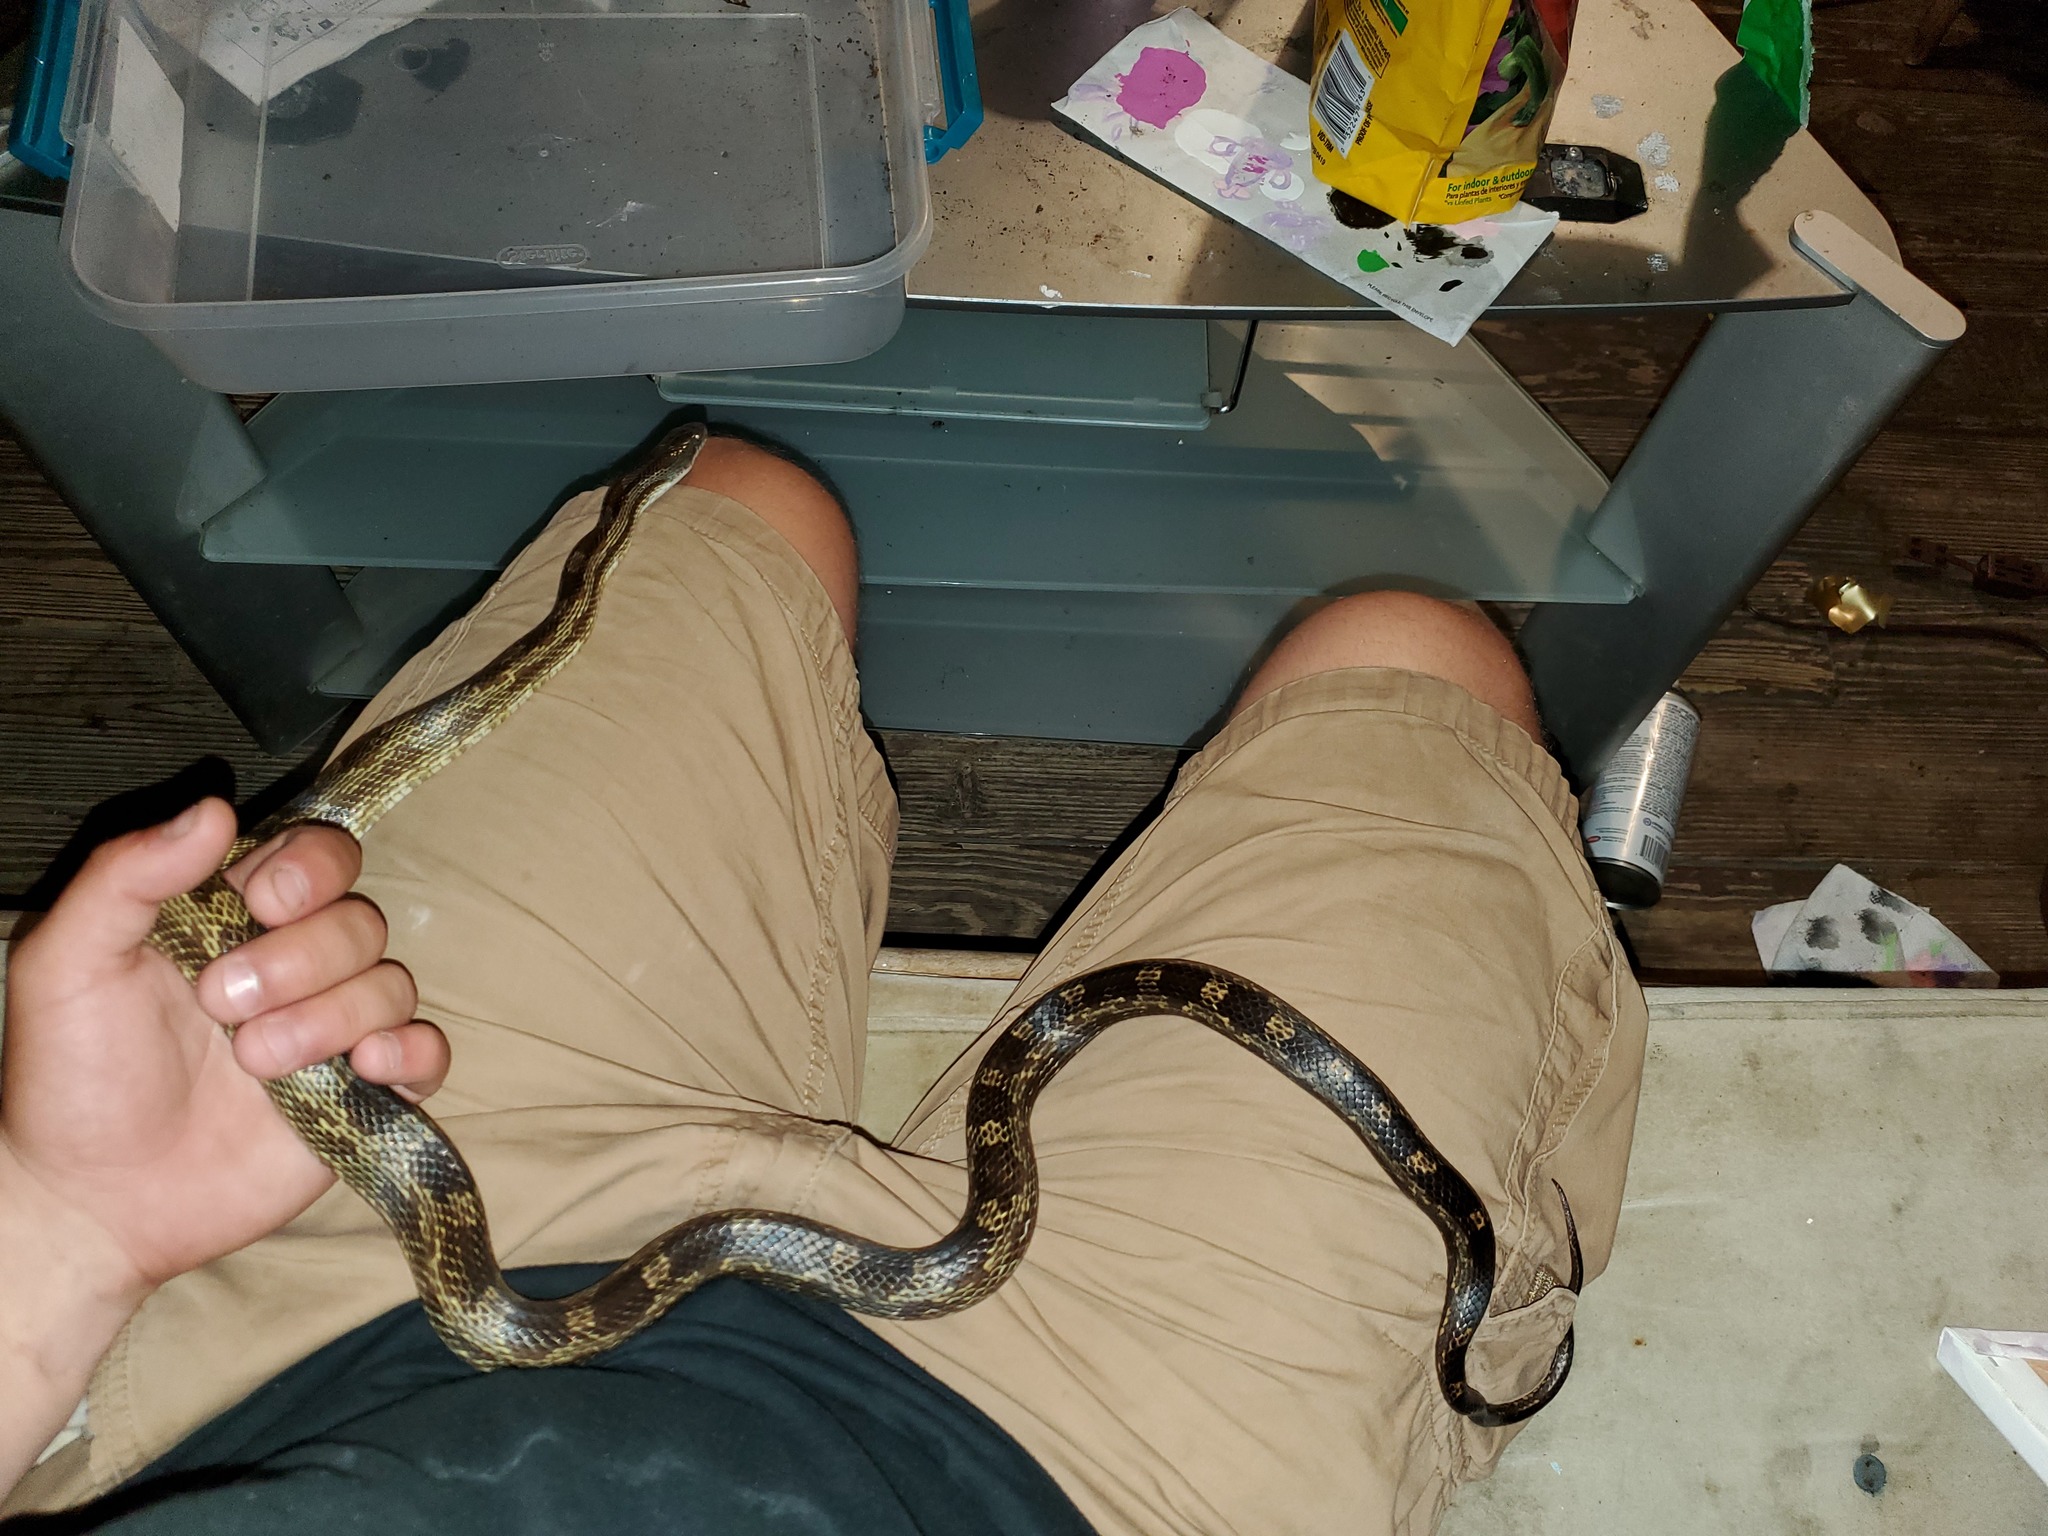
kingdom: Animalia
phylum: Chordata
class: Squamata
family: Colubridae
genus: Pantherophis
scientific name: Pantherophis spiloides
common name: Gray rat snake
